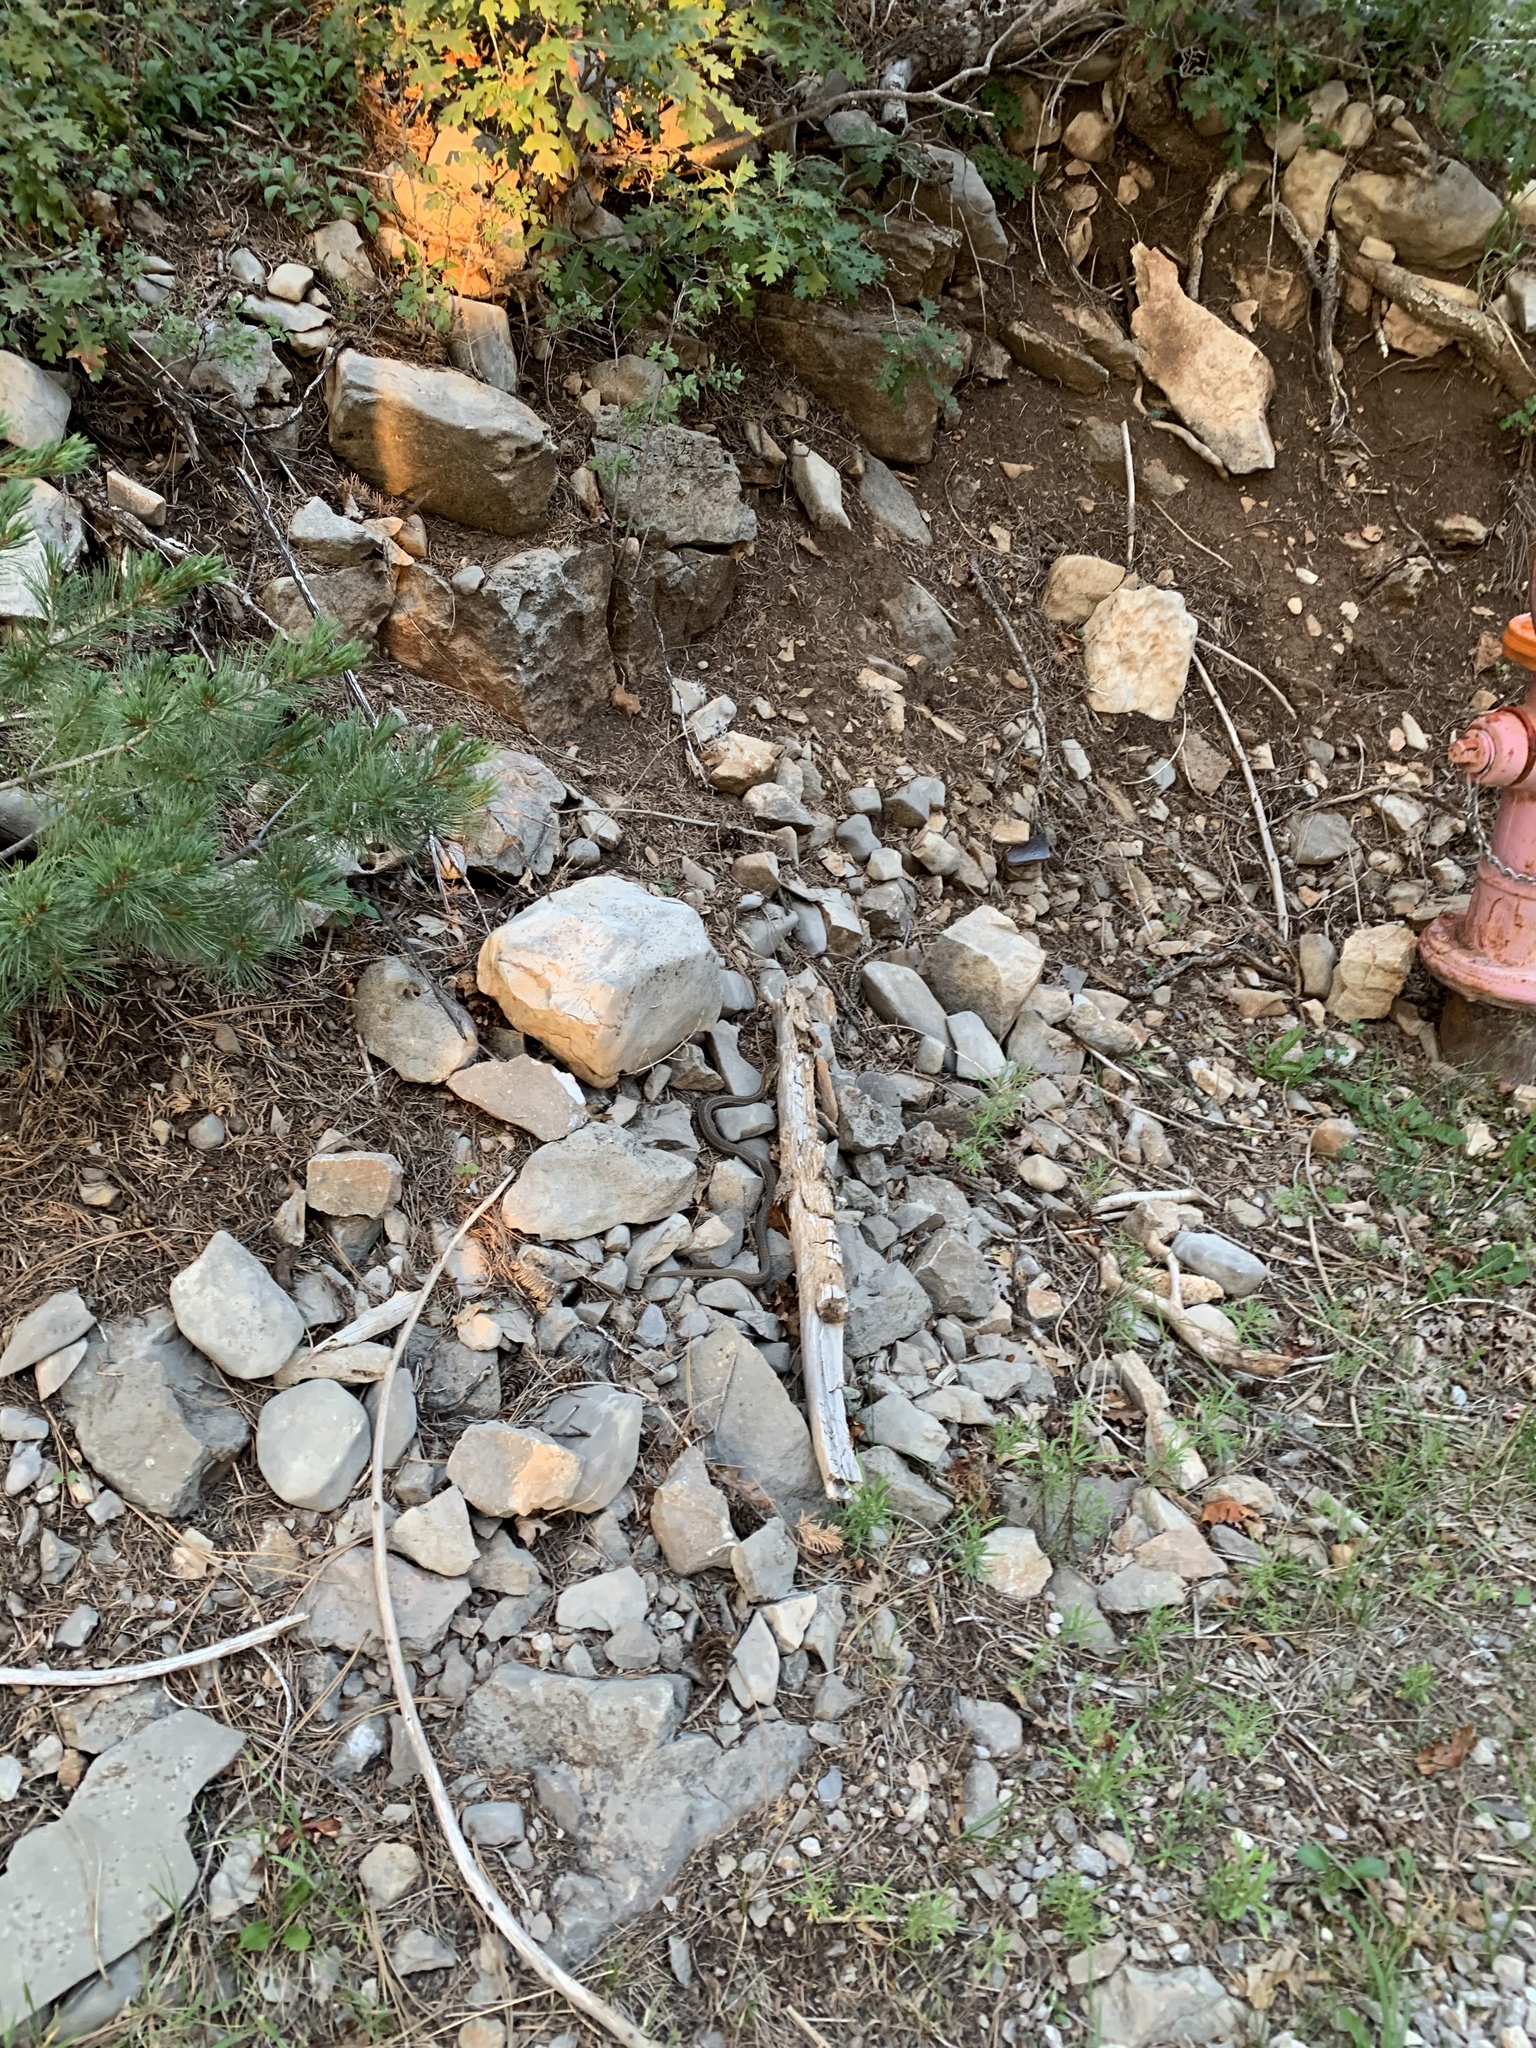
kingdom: Animalia
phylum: Chordata
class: Squamata
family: Colubridae
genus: Thamnophis
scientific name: Thamnophis elegans
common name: Western terrestrial garter snake
